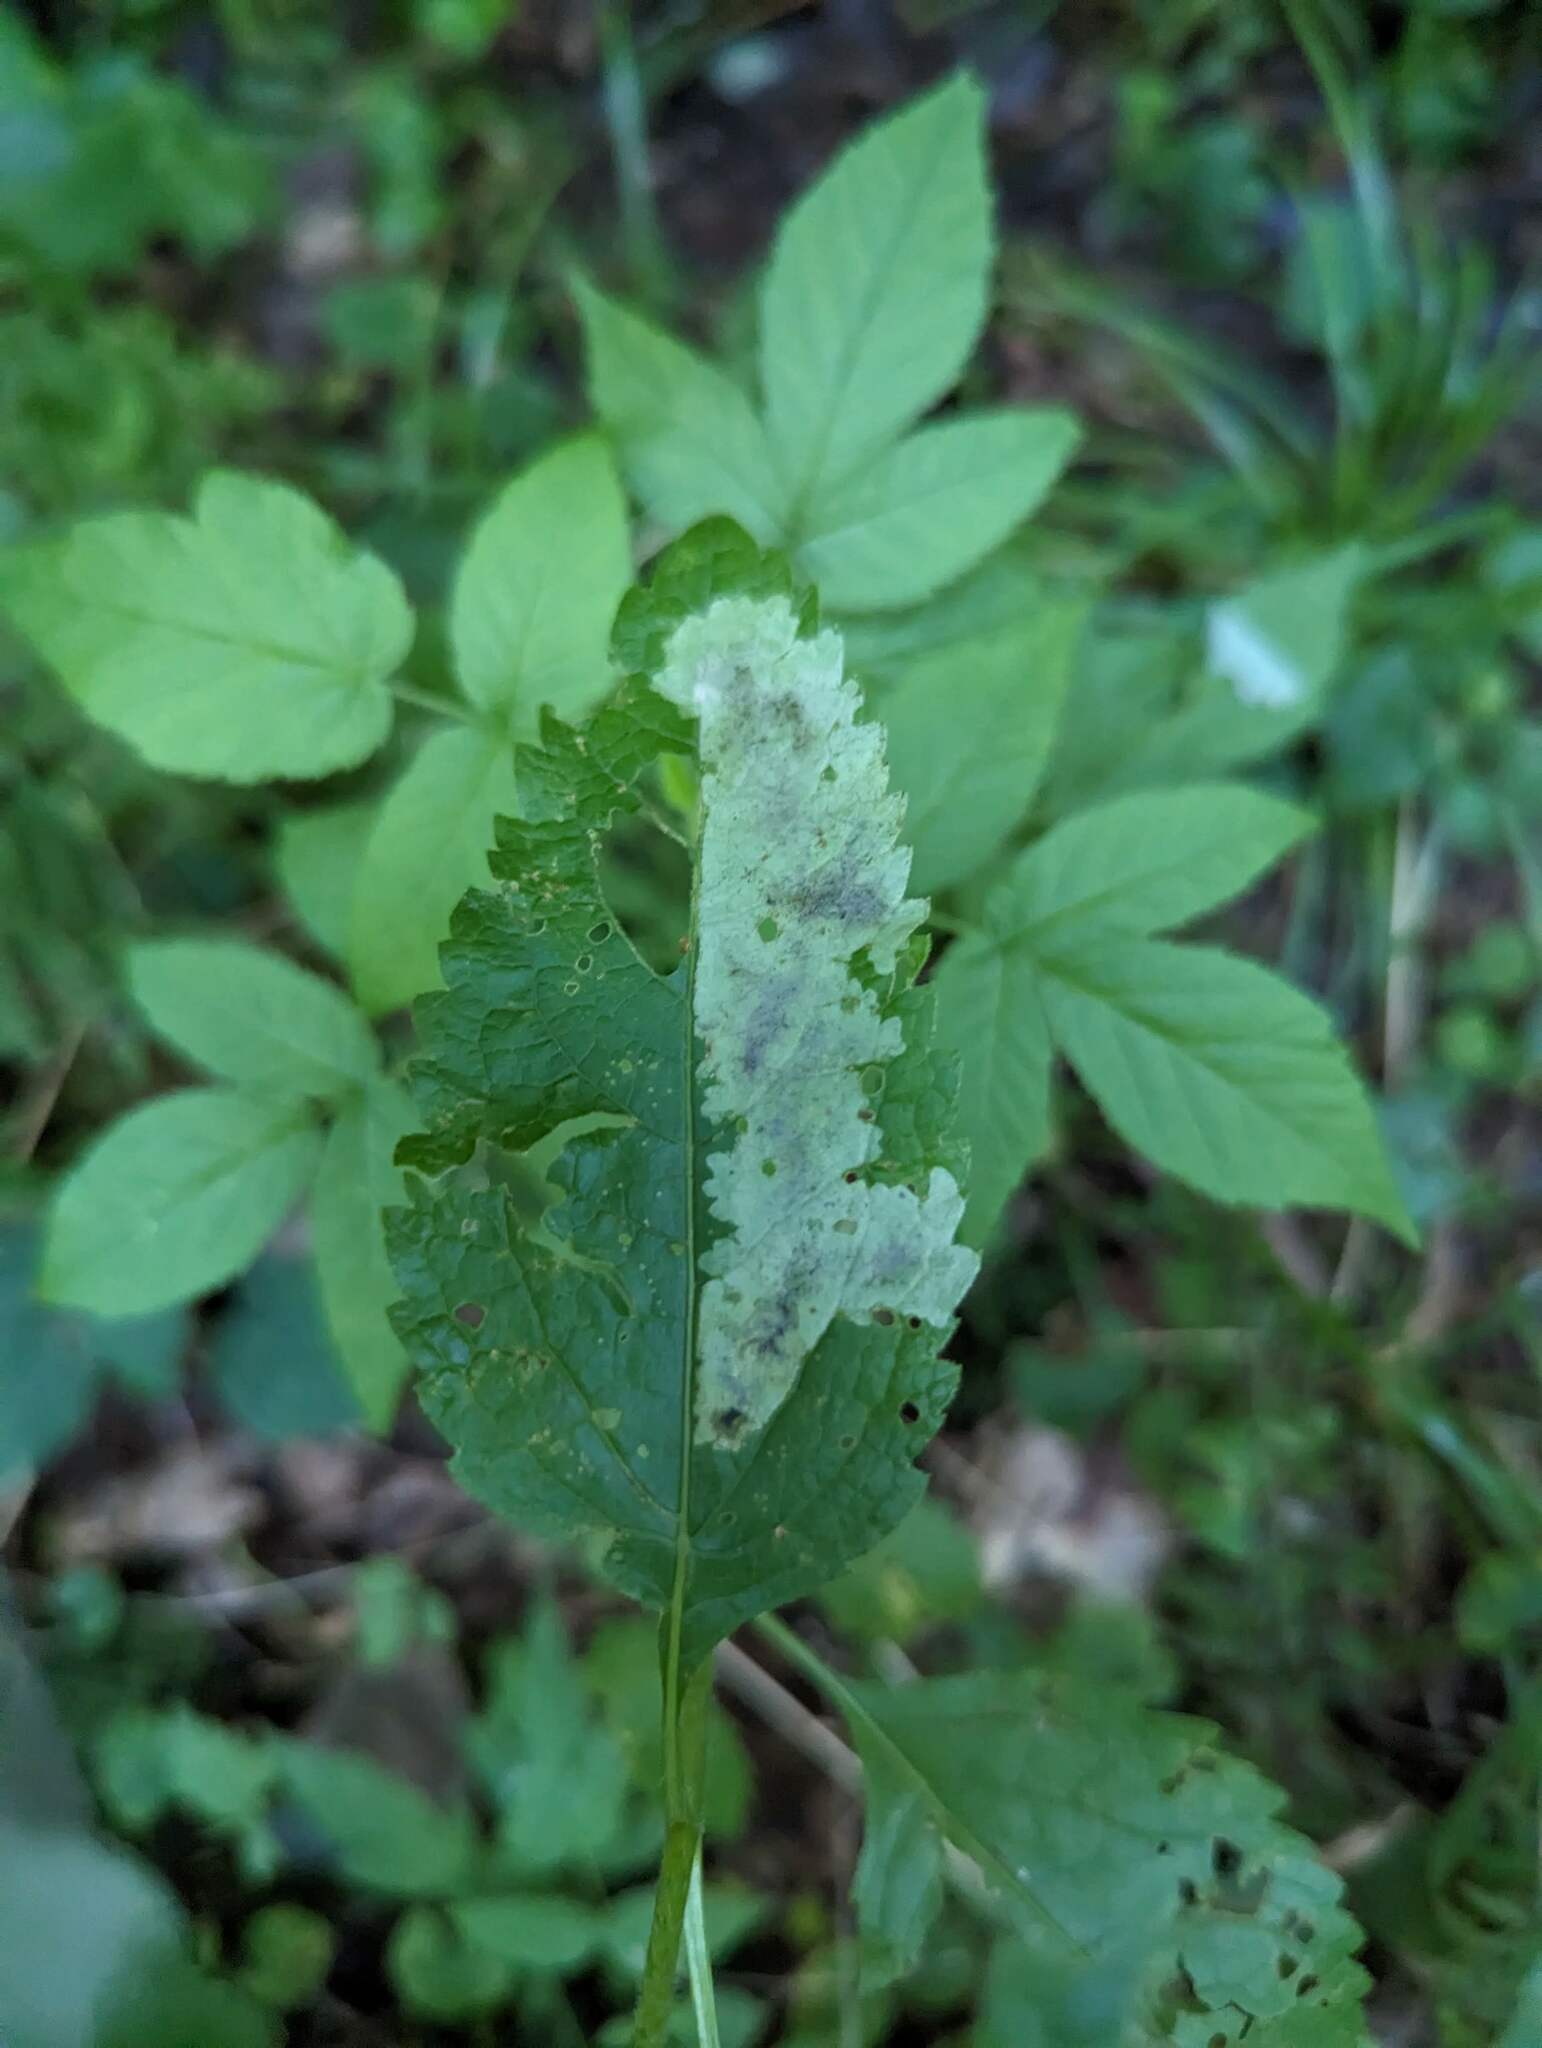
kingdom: Animalia
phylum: Arthropoda
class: Insecta
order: Diptera
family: Agromyzidae
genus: Calycomyza
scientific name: Calycomyza flavinotum
